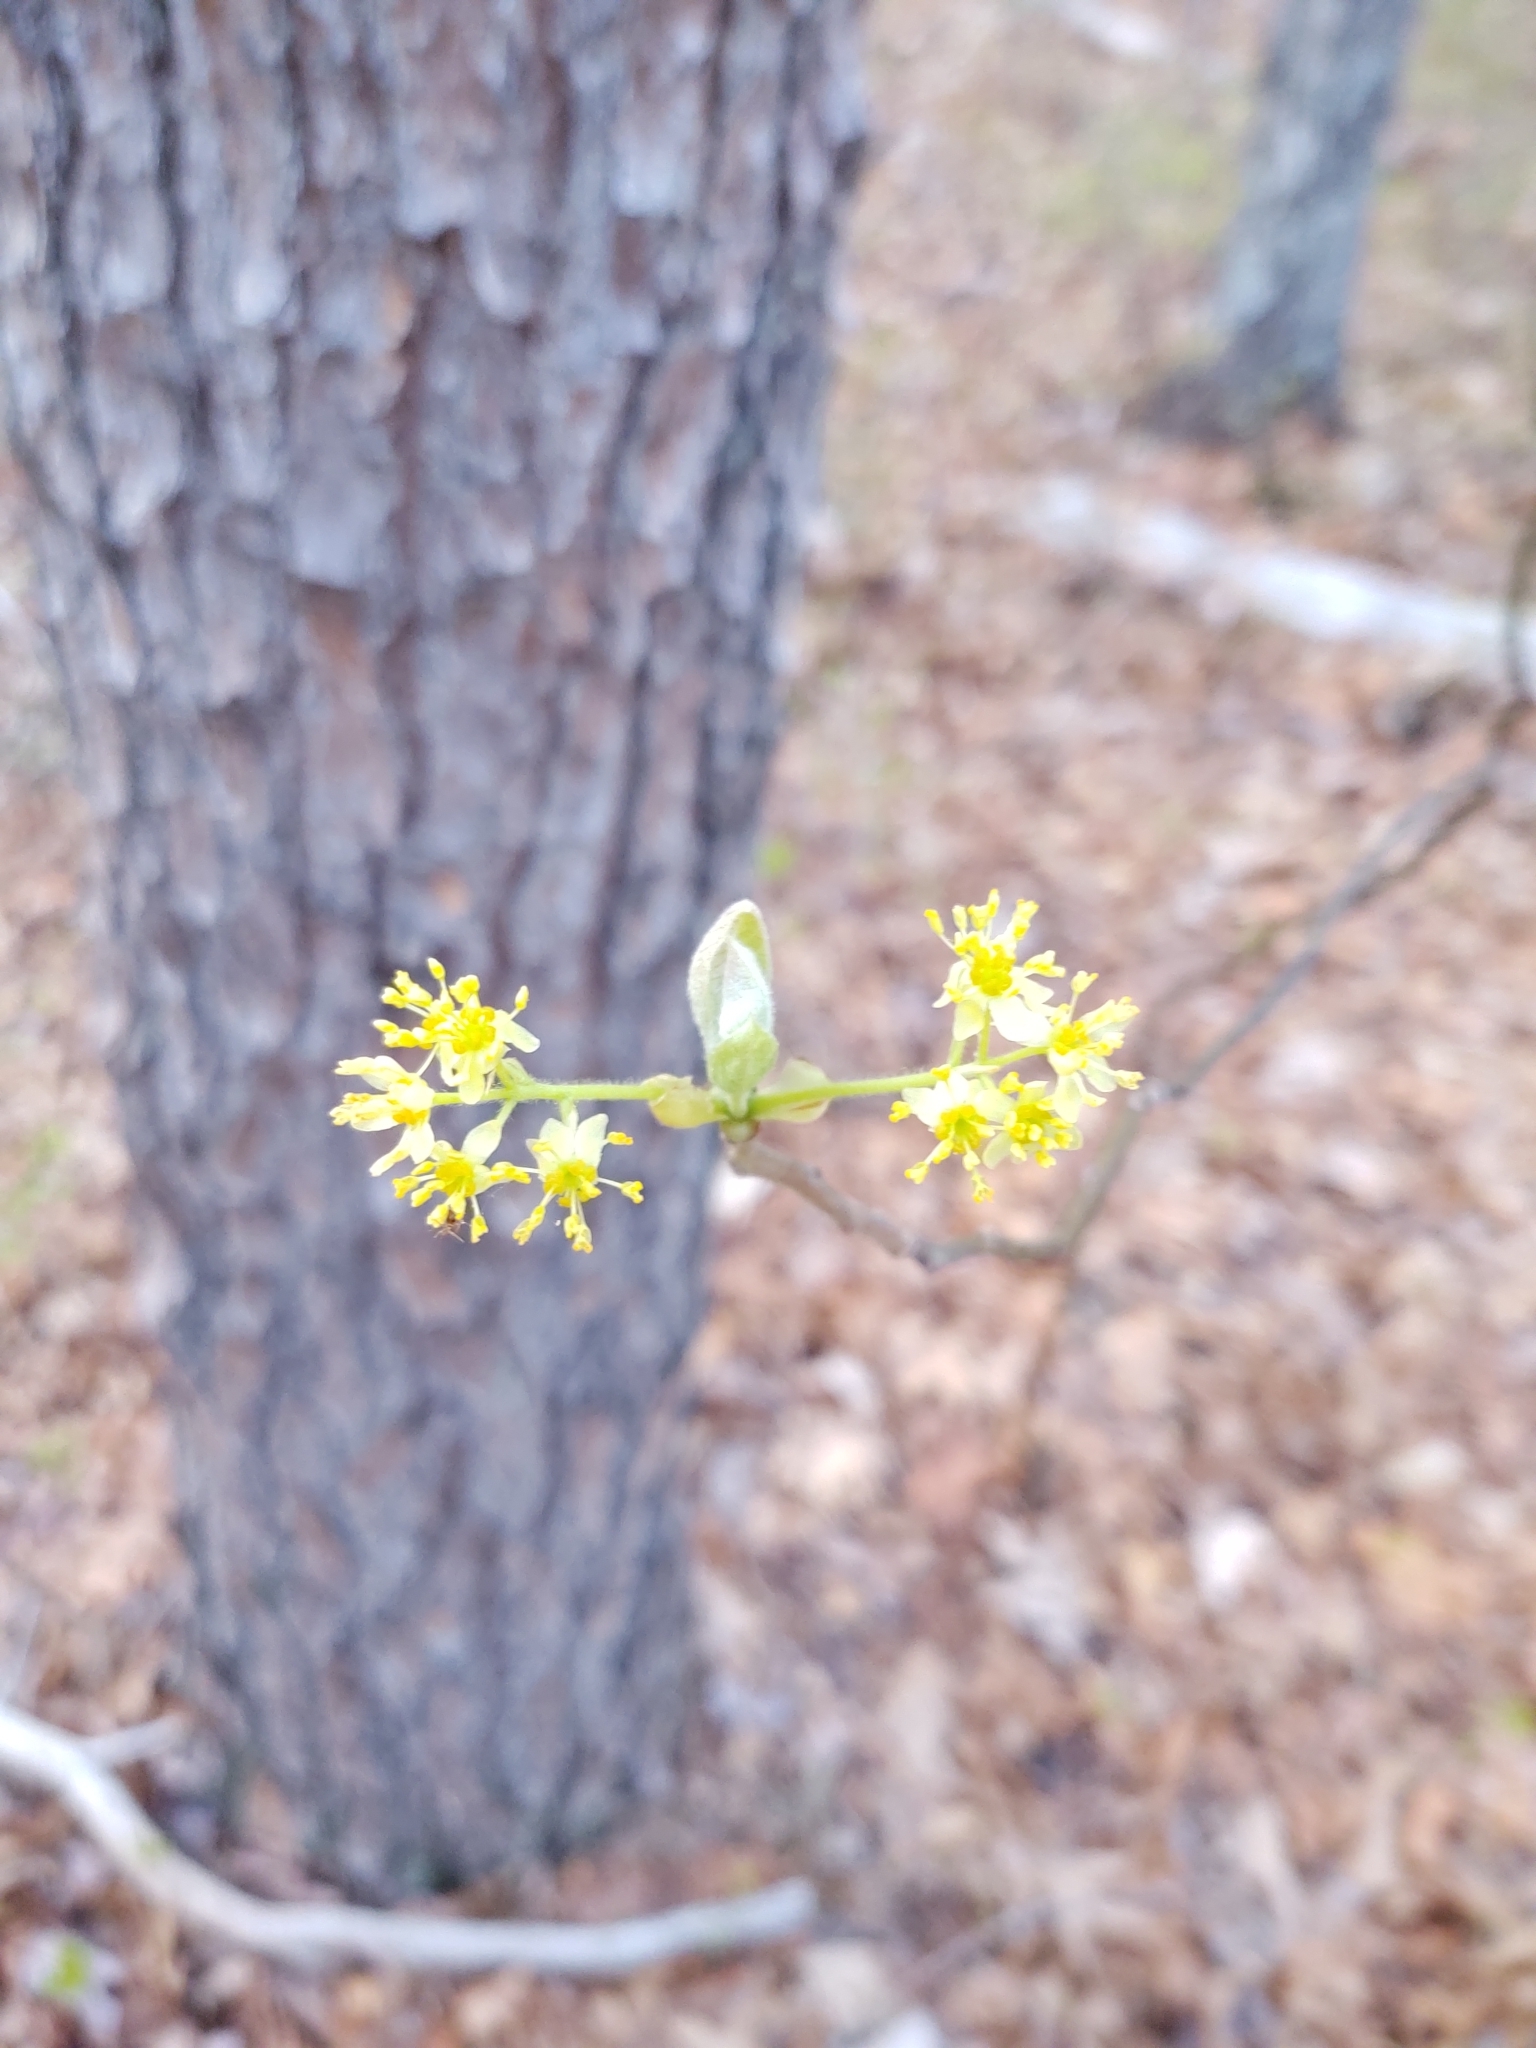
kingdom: Plantae
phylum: Tracheophyta
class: Magnoliopsida
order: Laurales
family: Lauraceae
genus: Sassafras
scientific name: Sassafras albidum
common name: Sassafras
